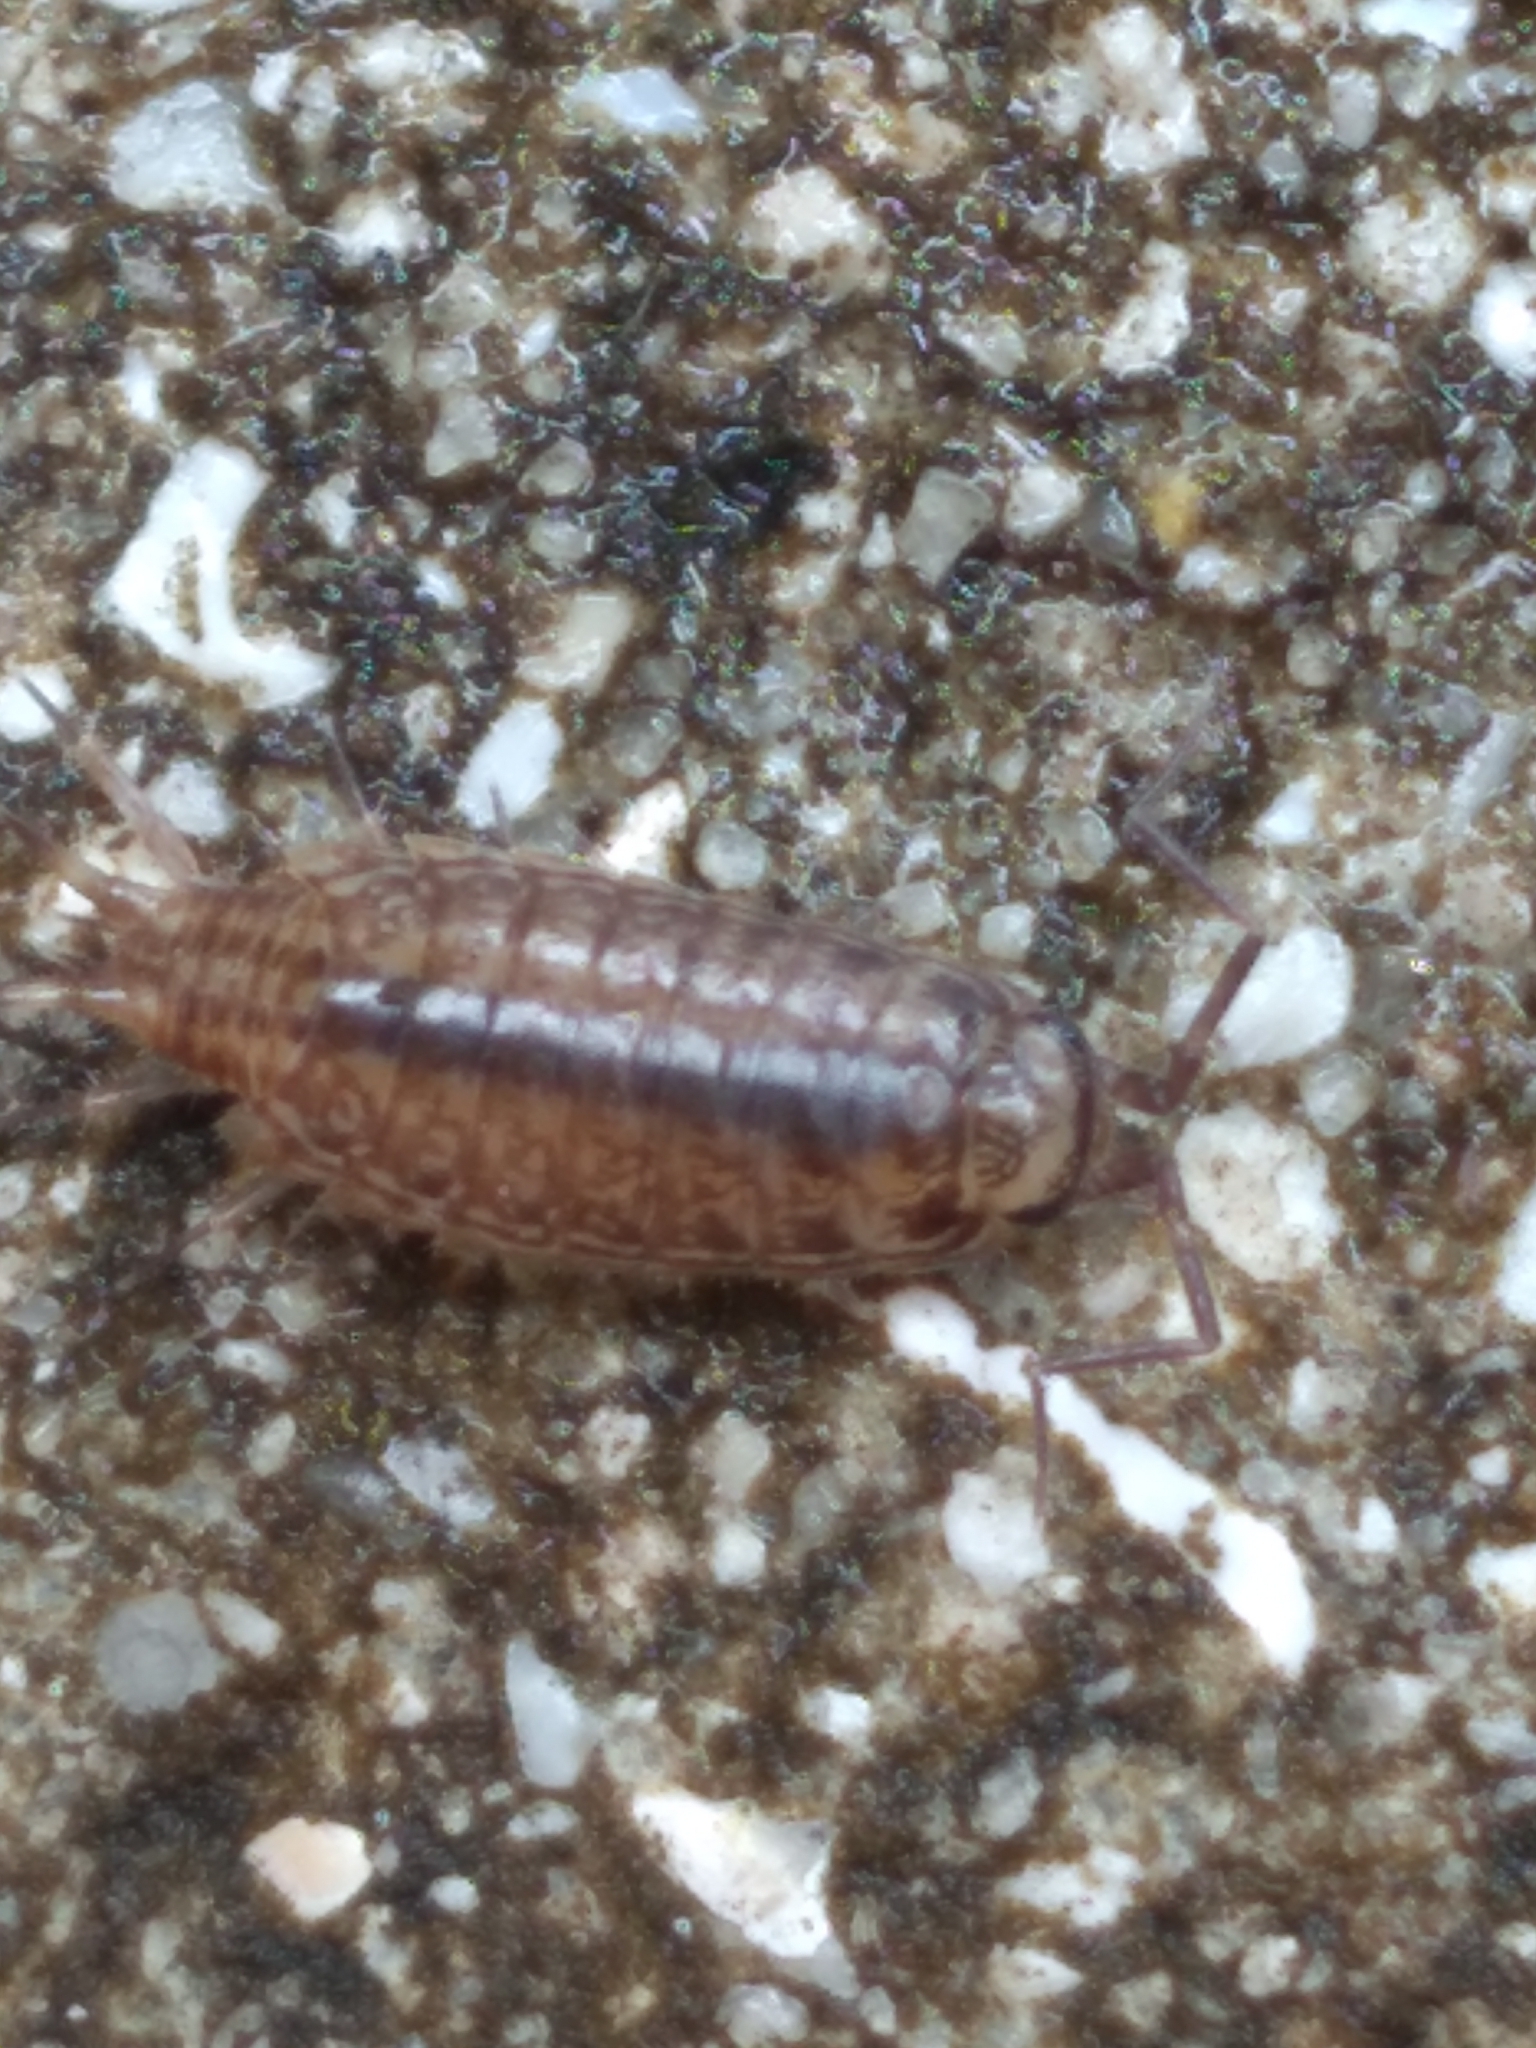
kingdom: Animalia
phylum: Arthropoda
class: Malacostraca
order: Isopoda
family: Philosciidae
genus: Atlantoscia
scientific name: Atlantoscia floridana
